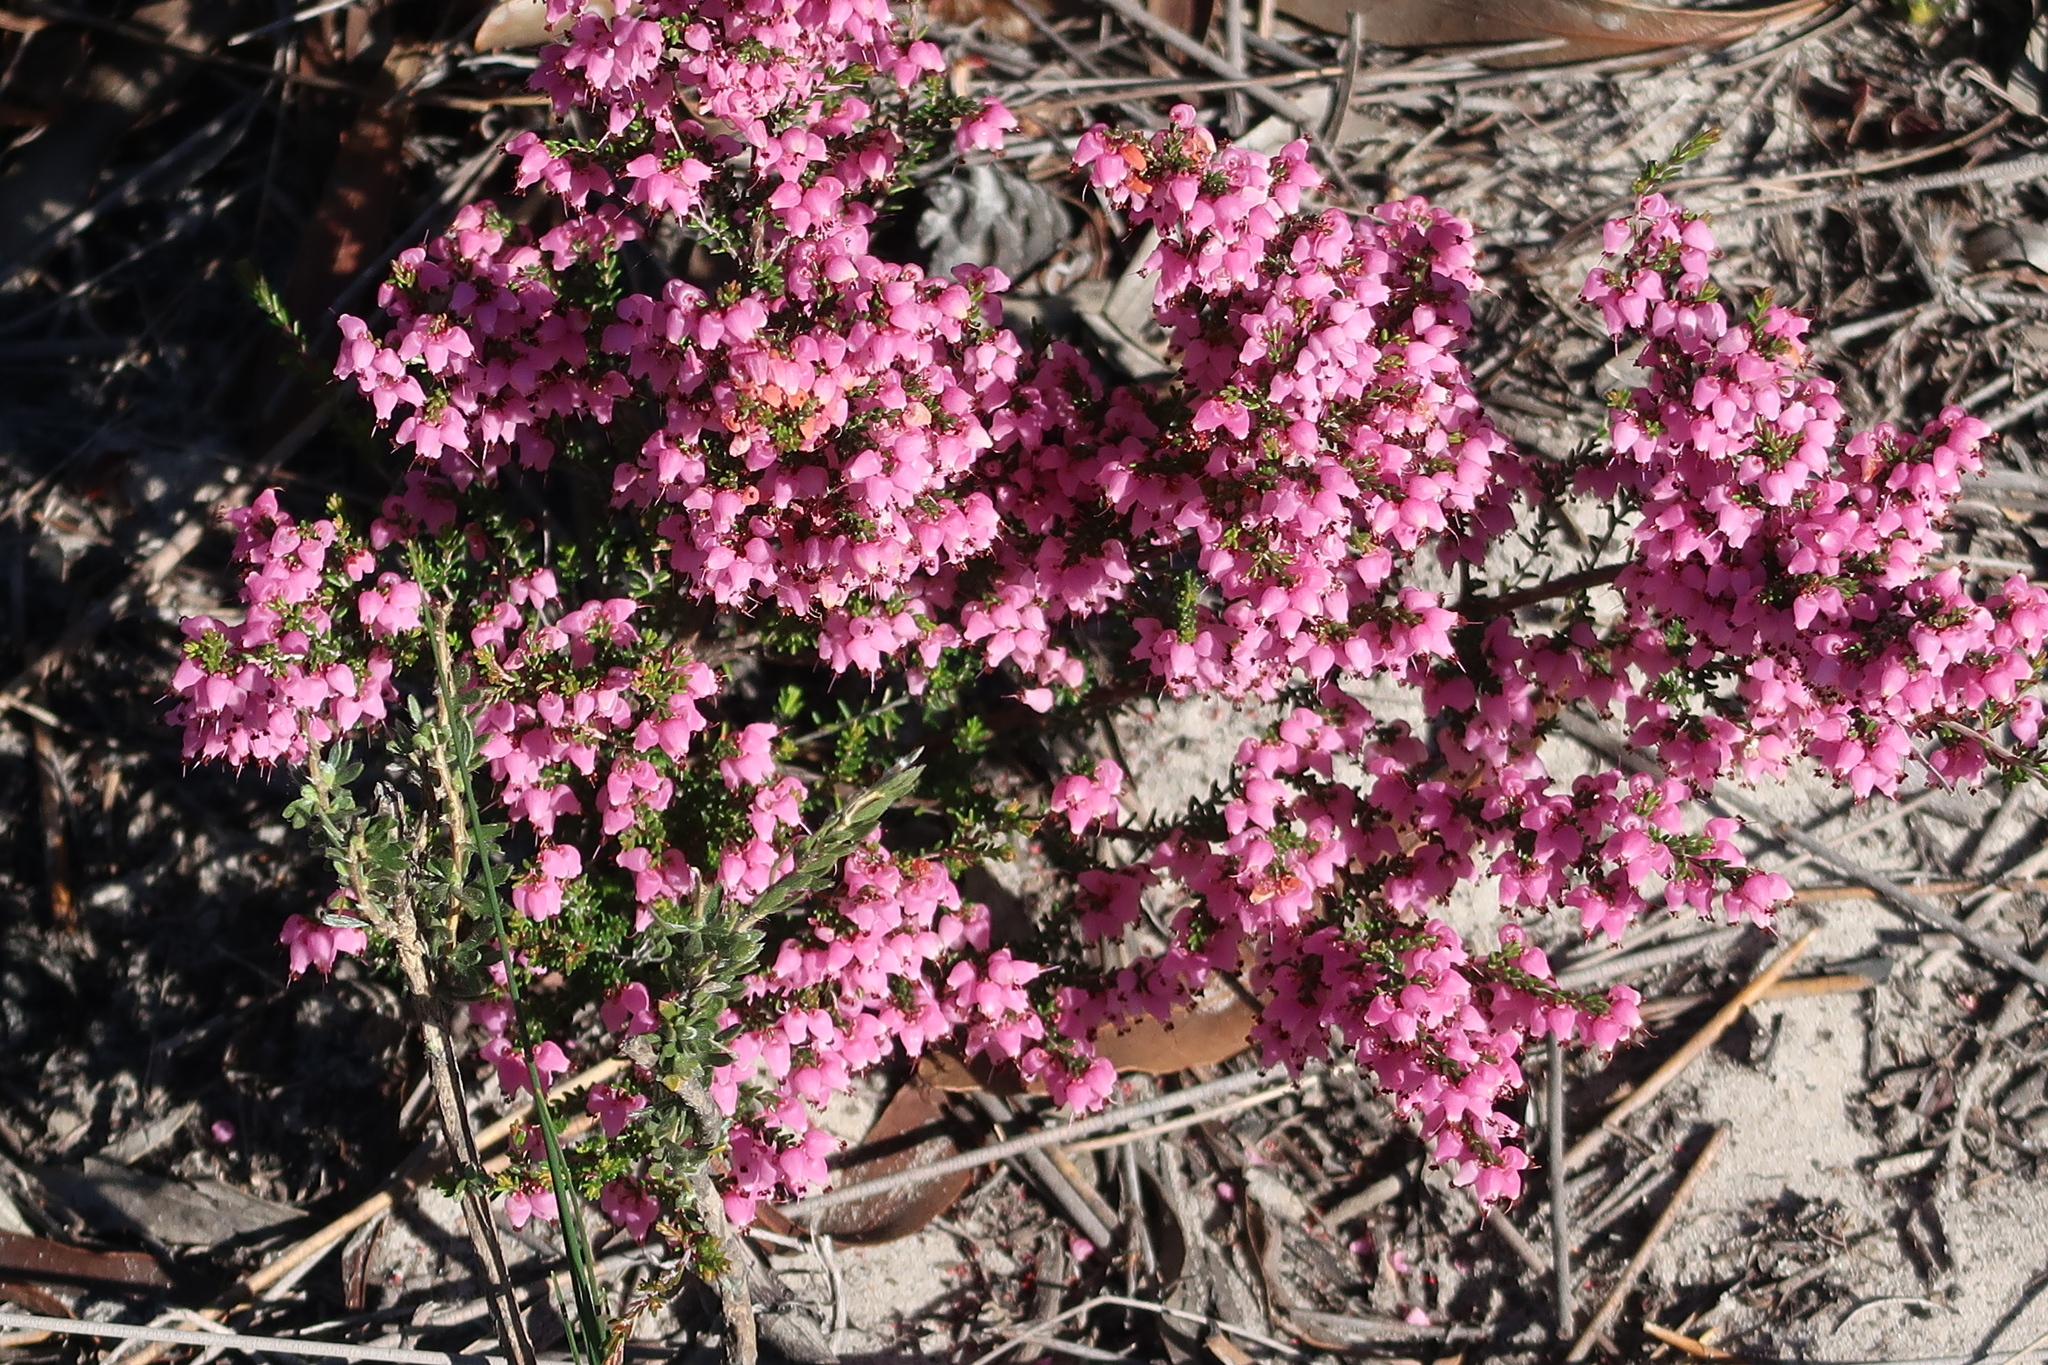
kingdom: Plantae
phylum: Tracheophyta
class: Magnoliopsida
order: Ericales
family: Ericaceae
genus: Erica
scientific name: Erica platycalyx
